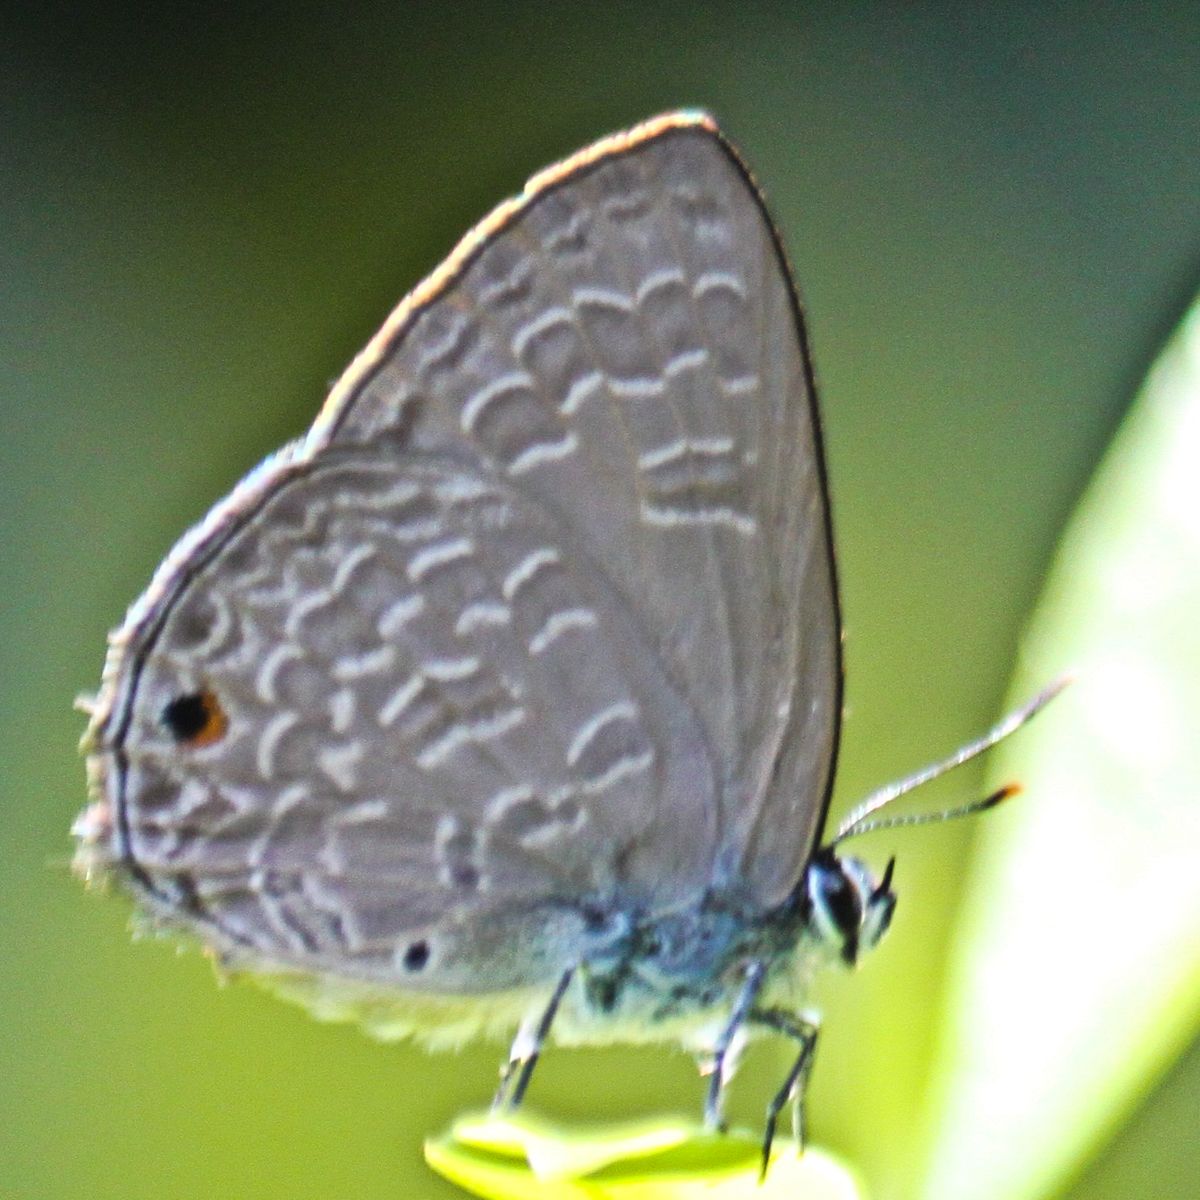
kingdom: Animalia
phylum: Arthropoda
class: Insecta
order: Lepidoptera
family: Lycaenidae
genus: Anthene
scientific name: Anthene emolus
